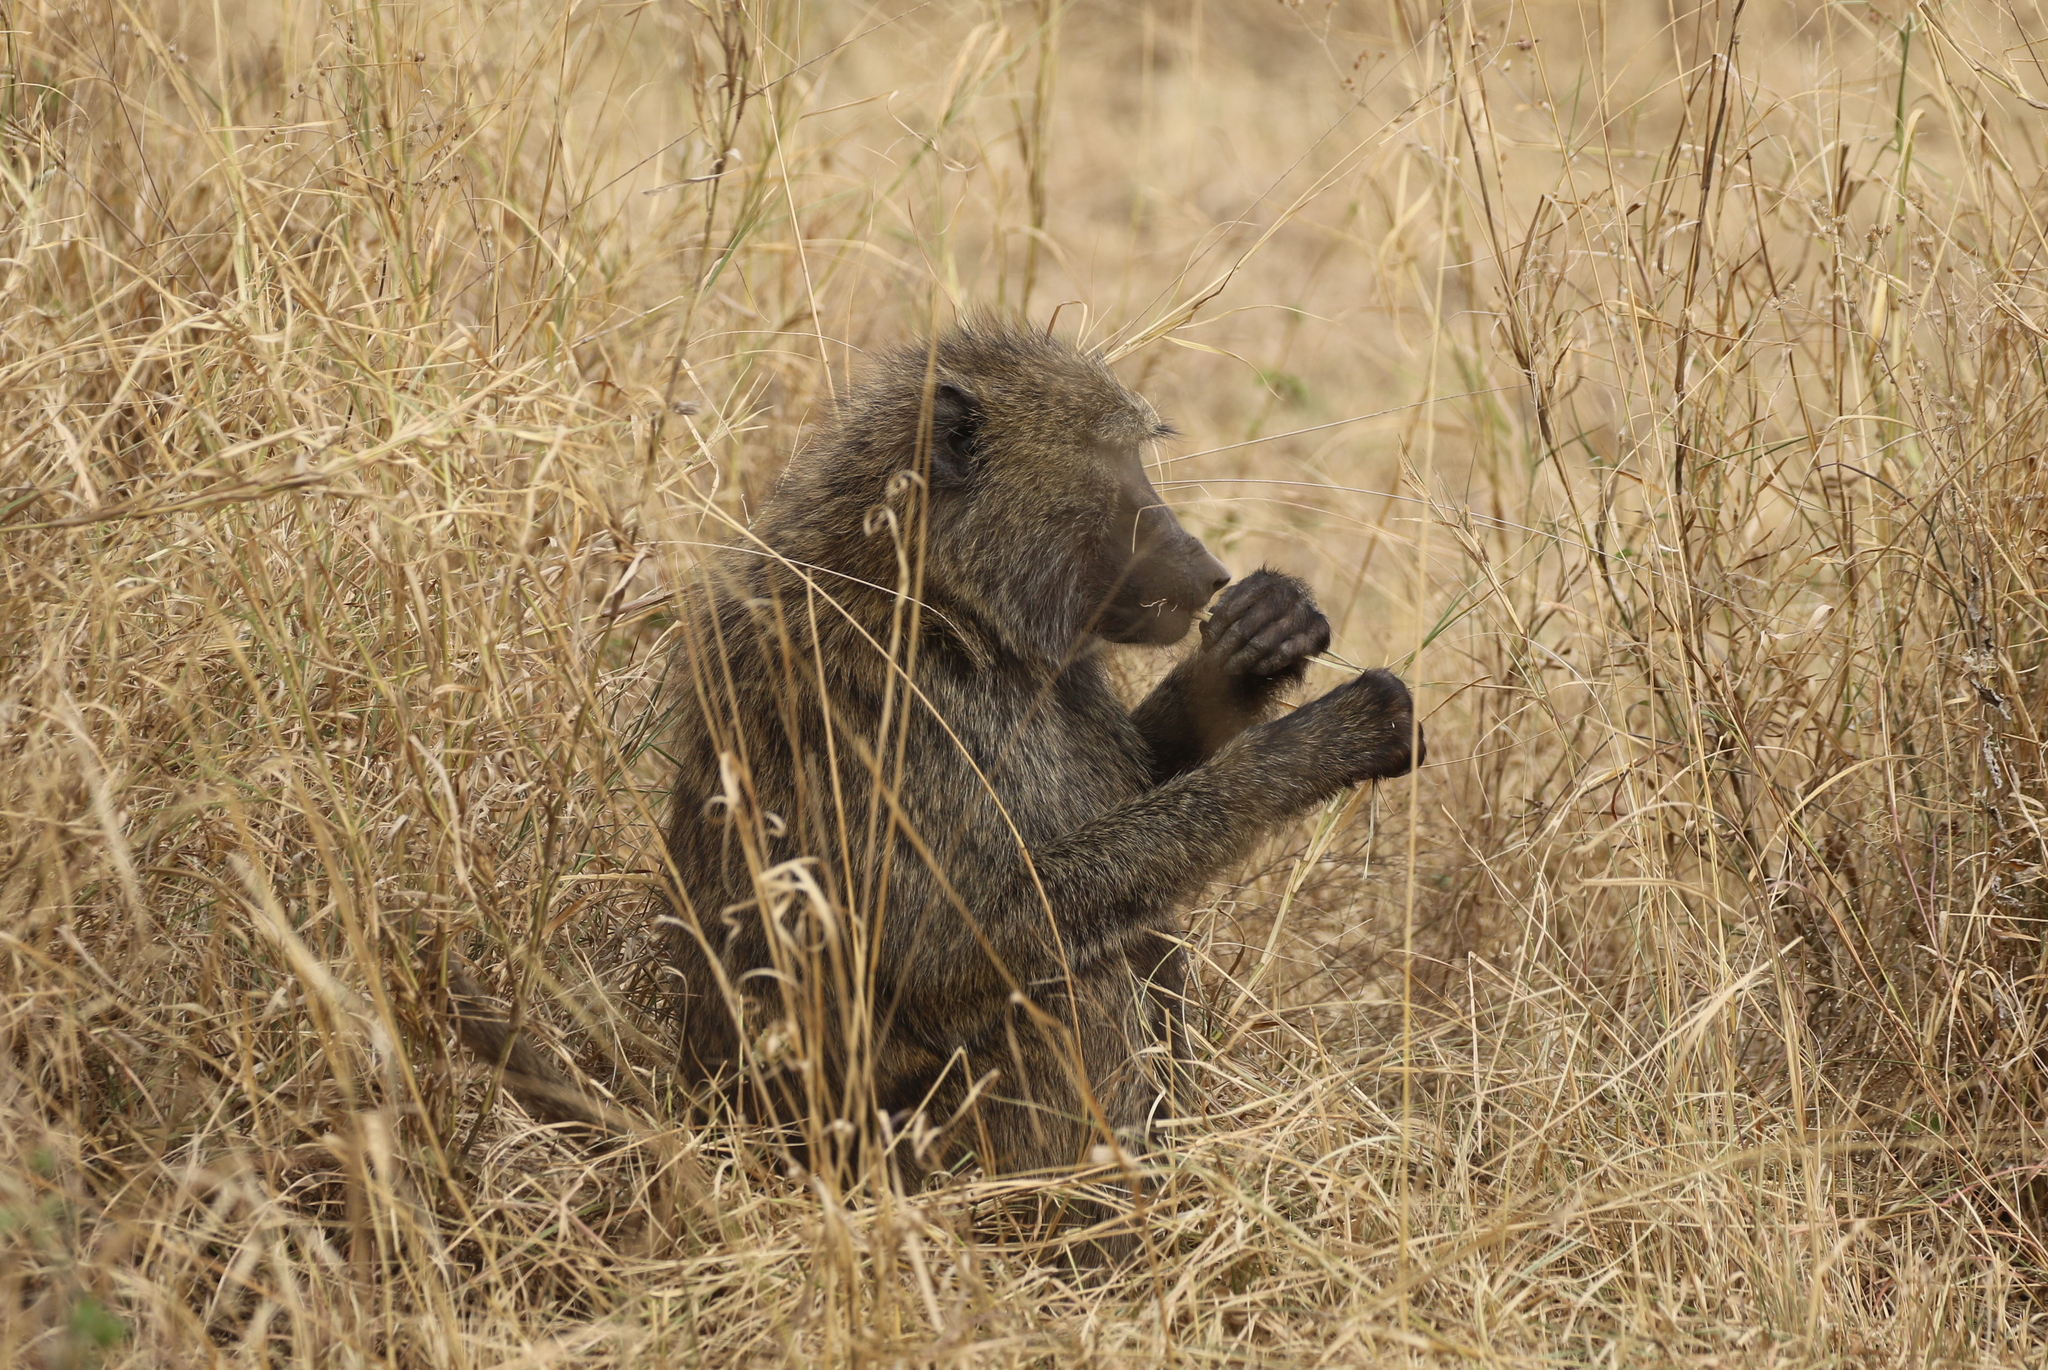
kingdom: Animalia
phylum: Chordata
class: Mammalia
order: Primates
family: Cercopithecidae
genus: Papio
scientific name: Papio anubis
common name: Olive baboon
